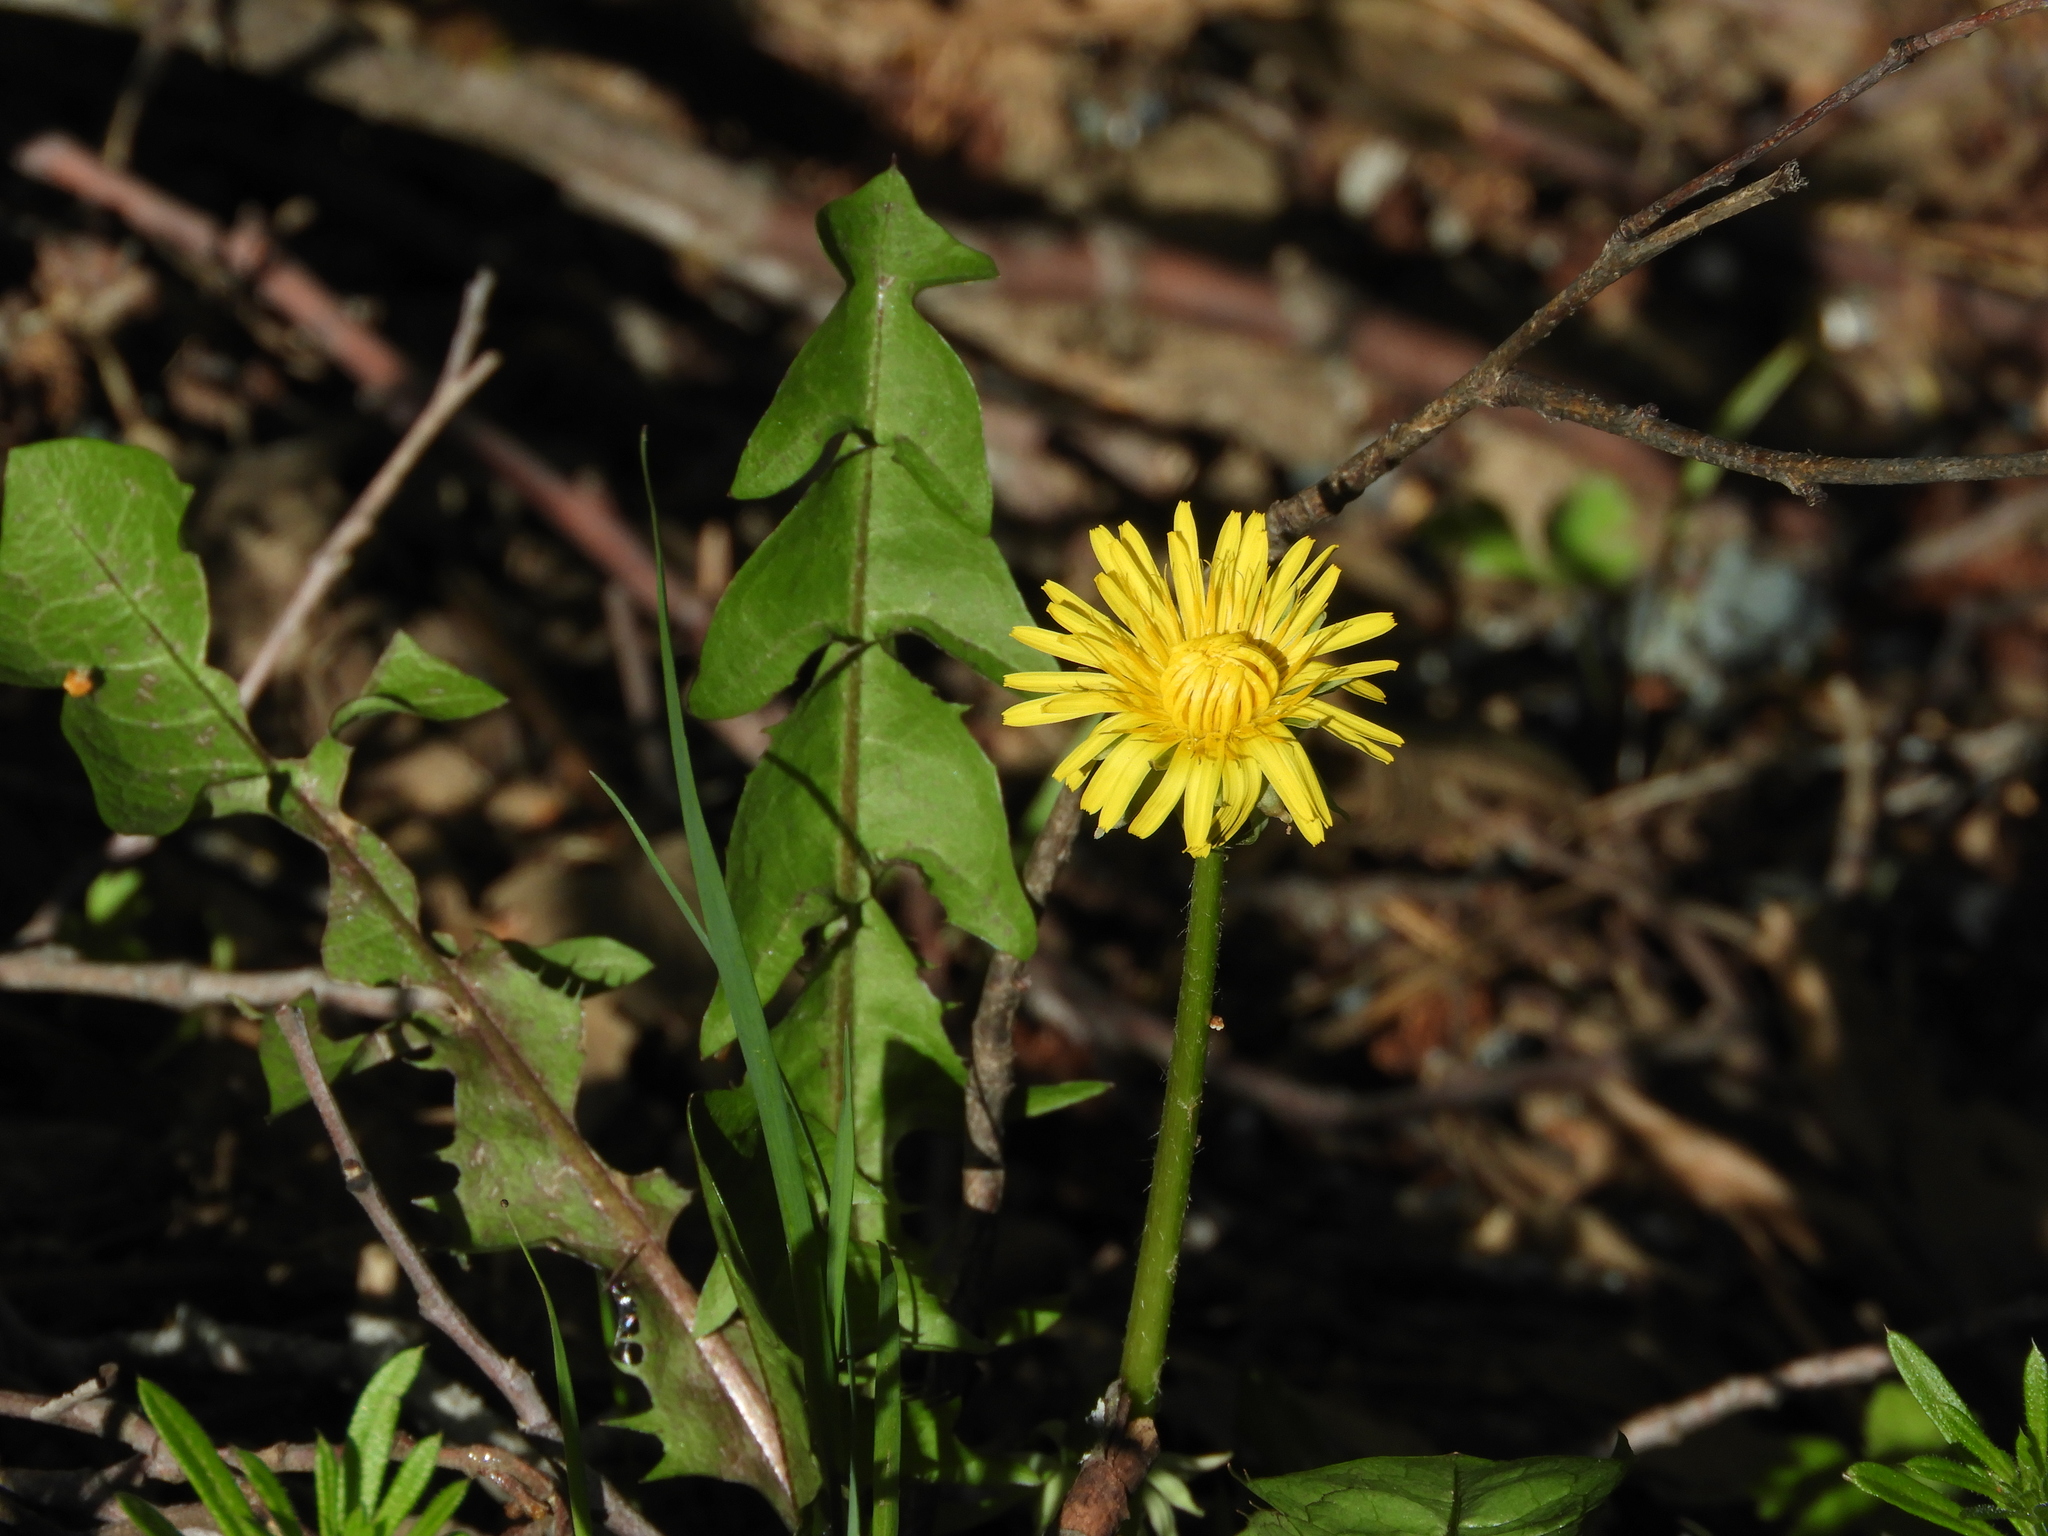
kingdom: Plantae
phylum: Tracheophyta
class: Magnoliopsida
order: Asterales
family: Asteraceae
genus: Taraxacum
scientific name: Taraxacum officinale
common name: Common dandelion
